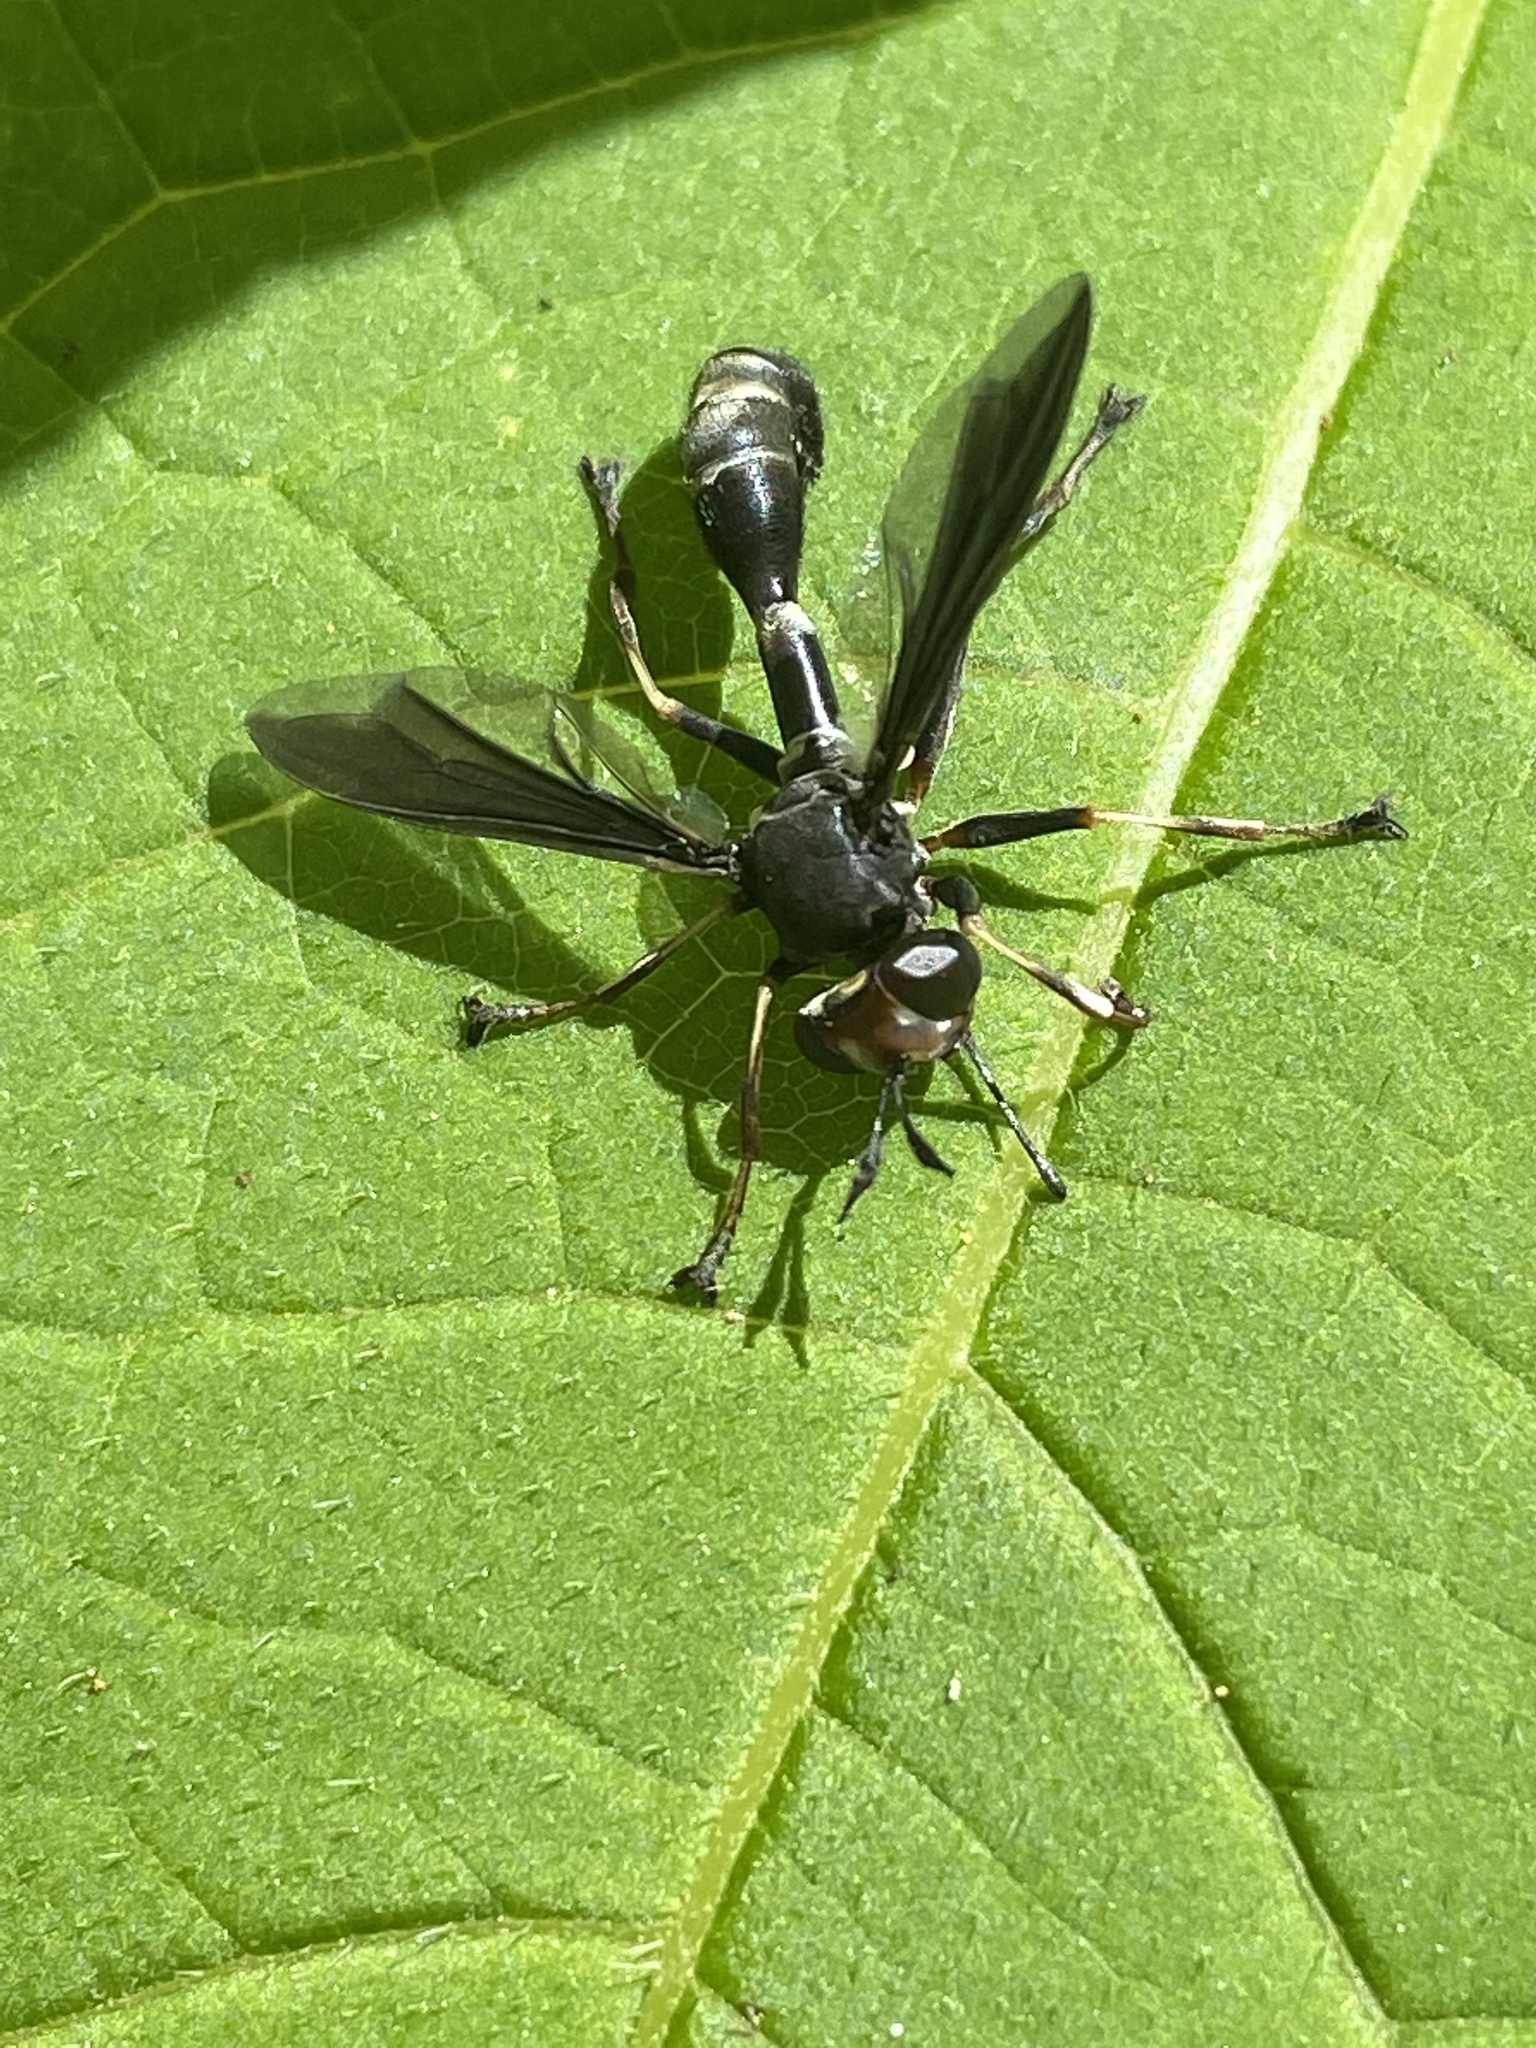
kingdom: Animalia
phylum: Arthropoda
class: Insecta
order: Diptera
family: Conopidae
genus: Physocephala
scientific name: Physocephala tibialis
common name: Common eastern physocephala
